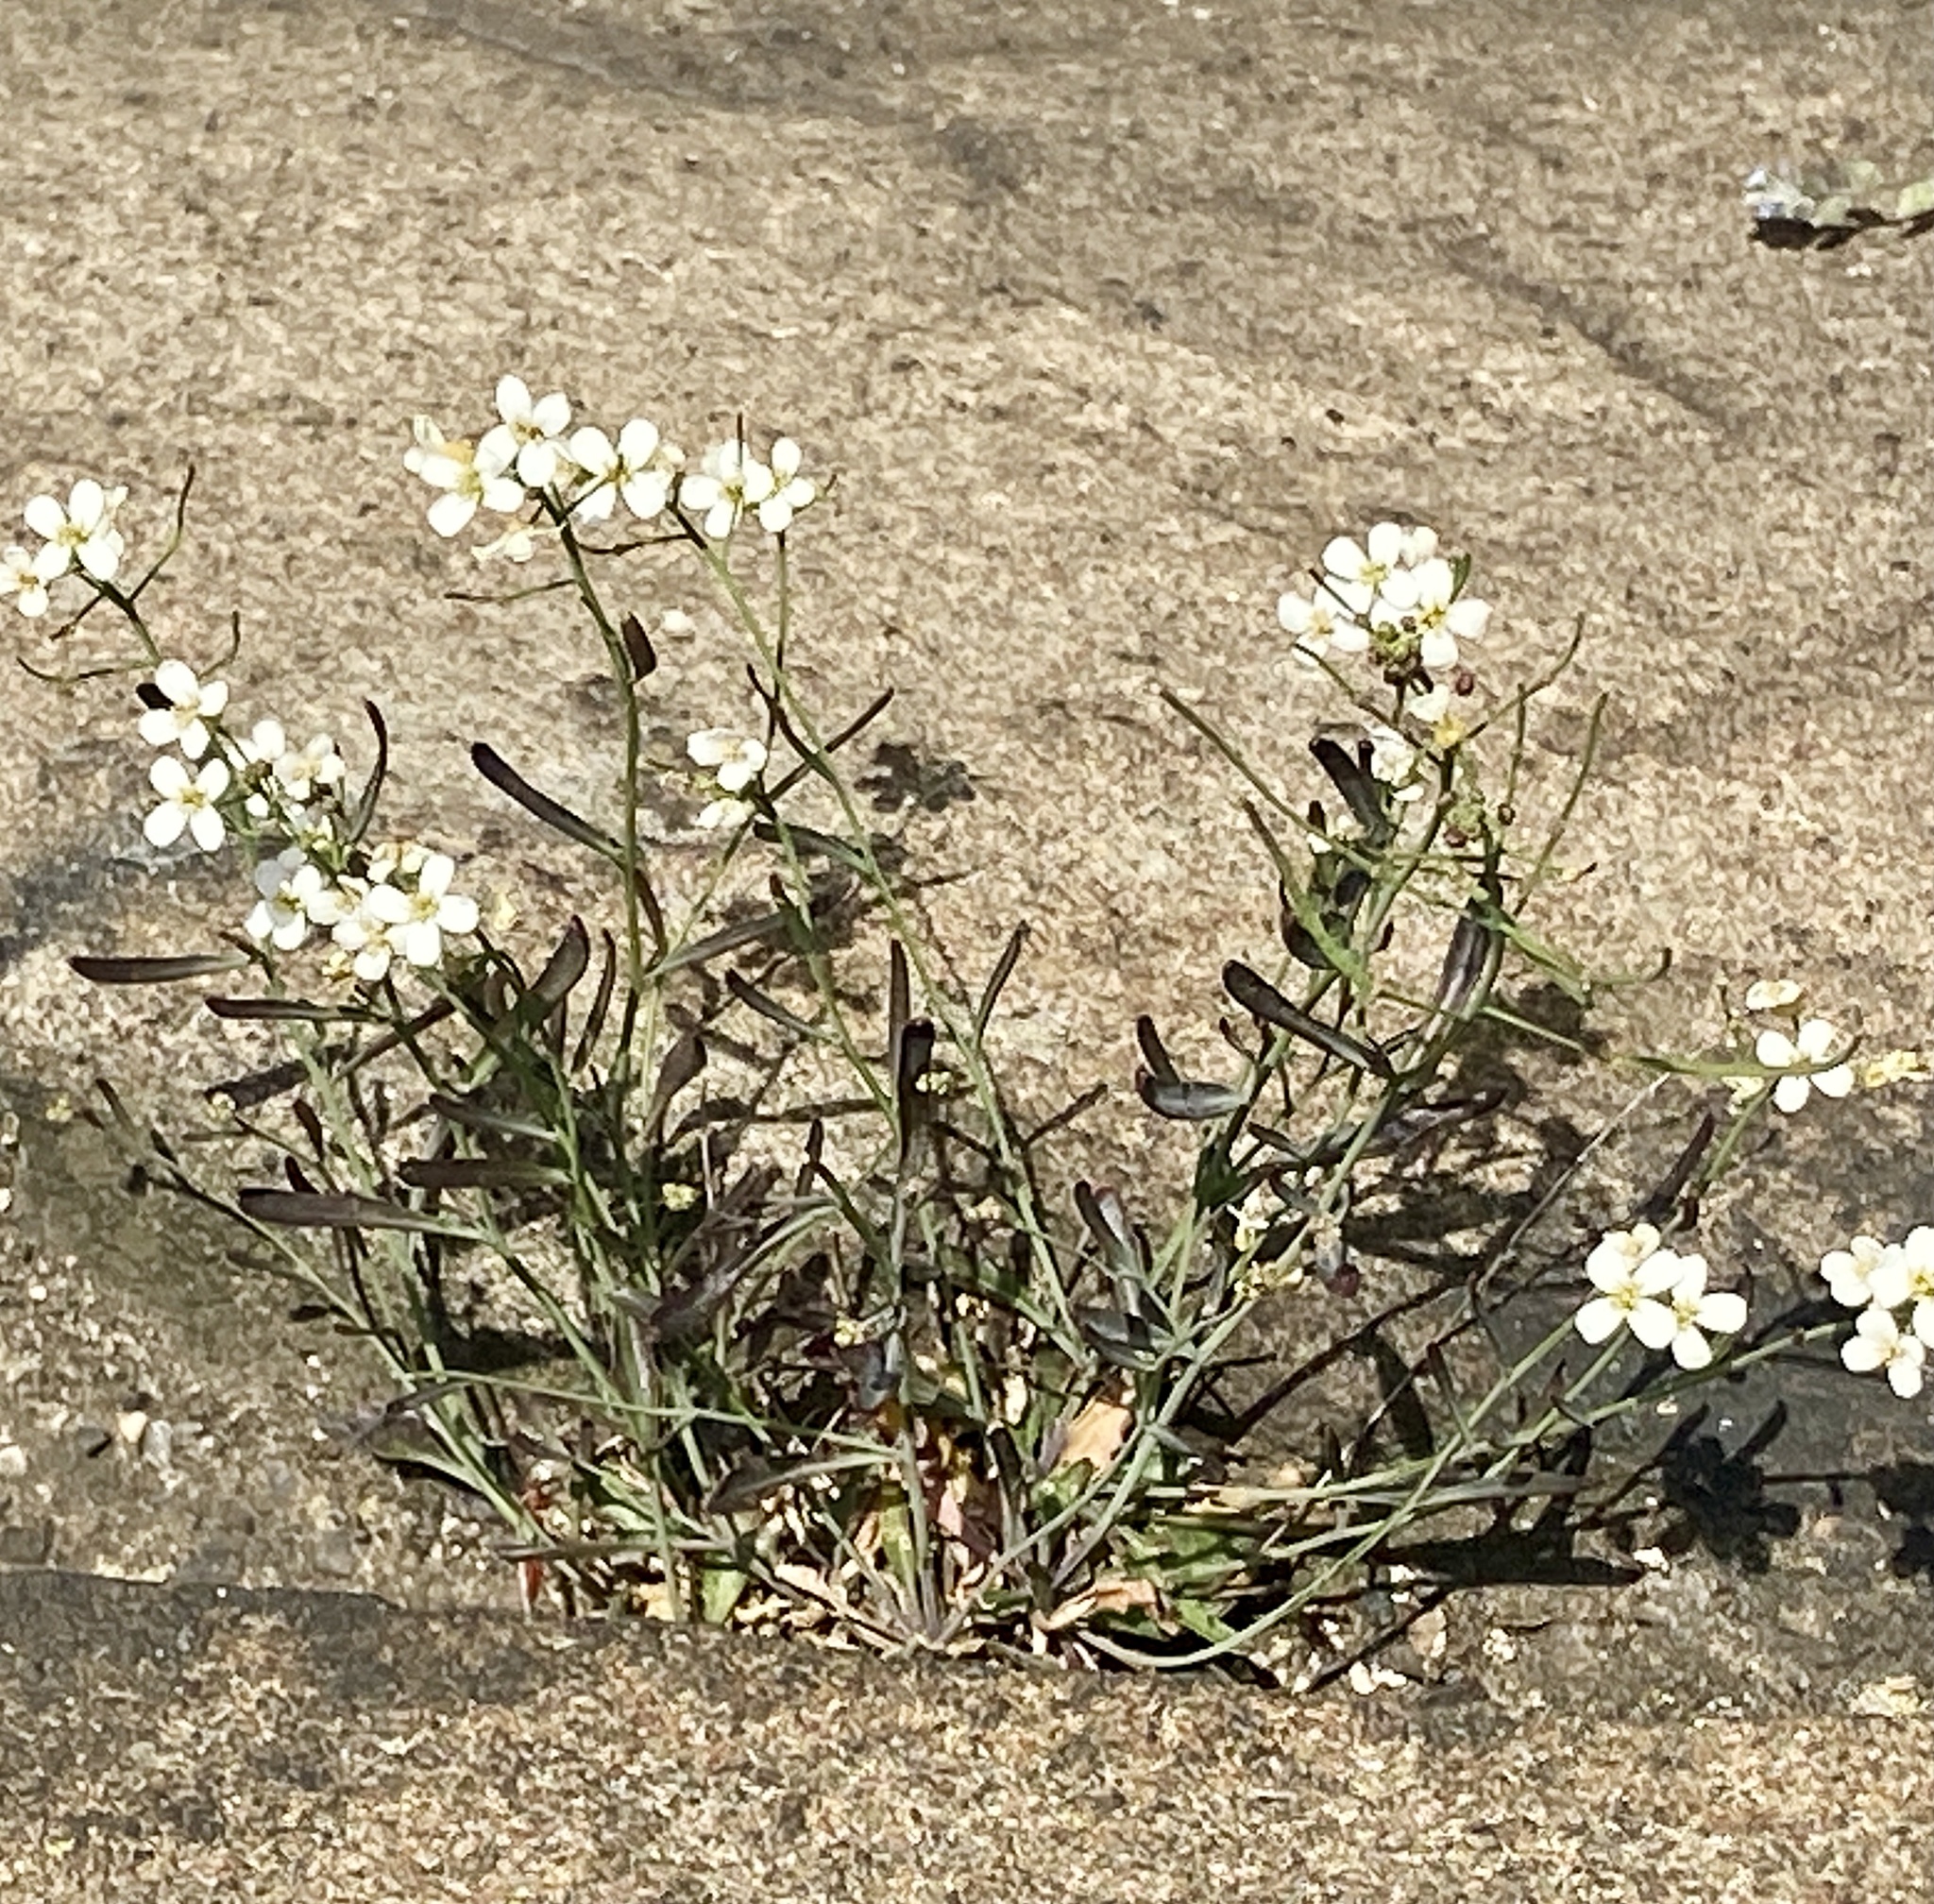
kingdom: Plantae
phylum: Tracheophyta
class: Magnoliopsida
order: Brassicales
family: Brassicaceae
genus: Arabidopsis
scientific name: Arabidopsis lyrata
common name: Lyrate rockcress
